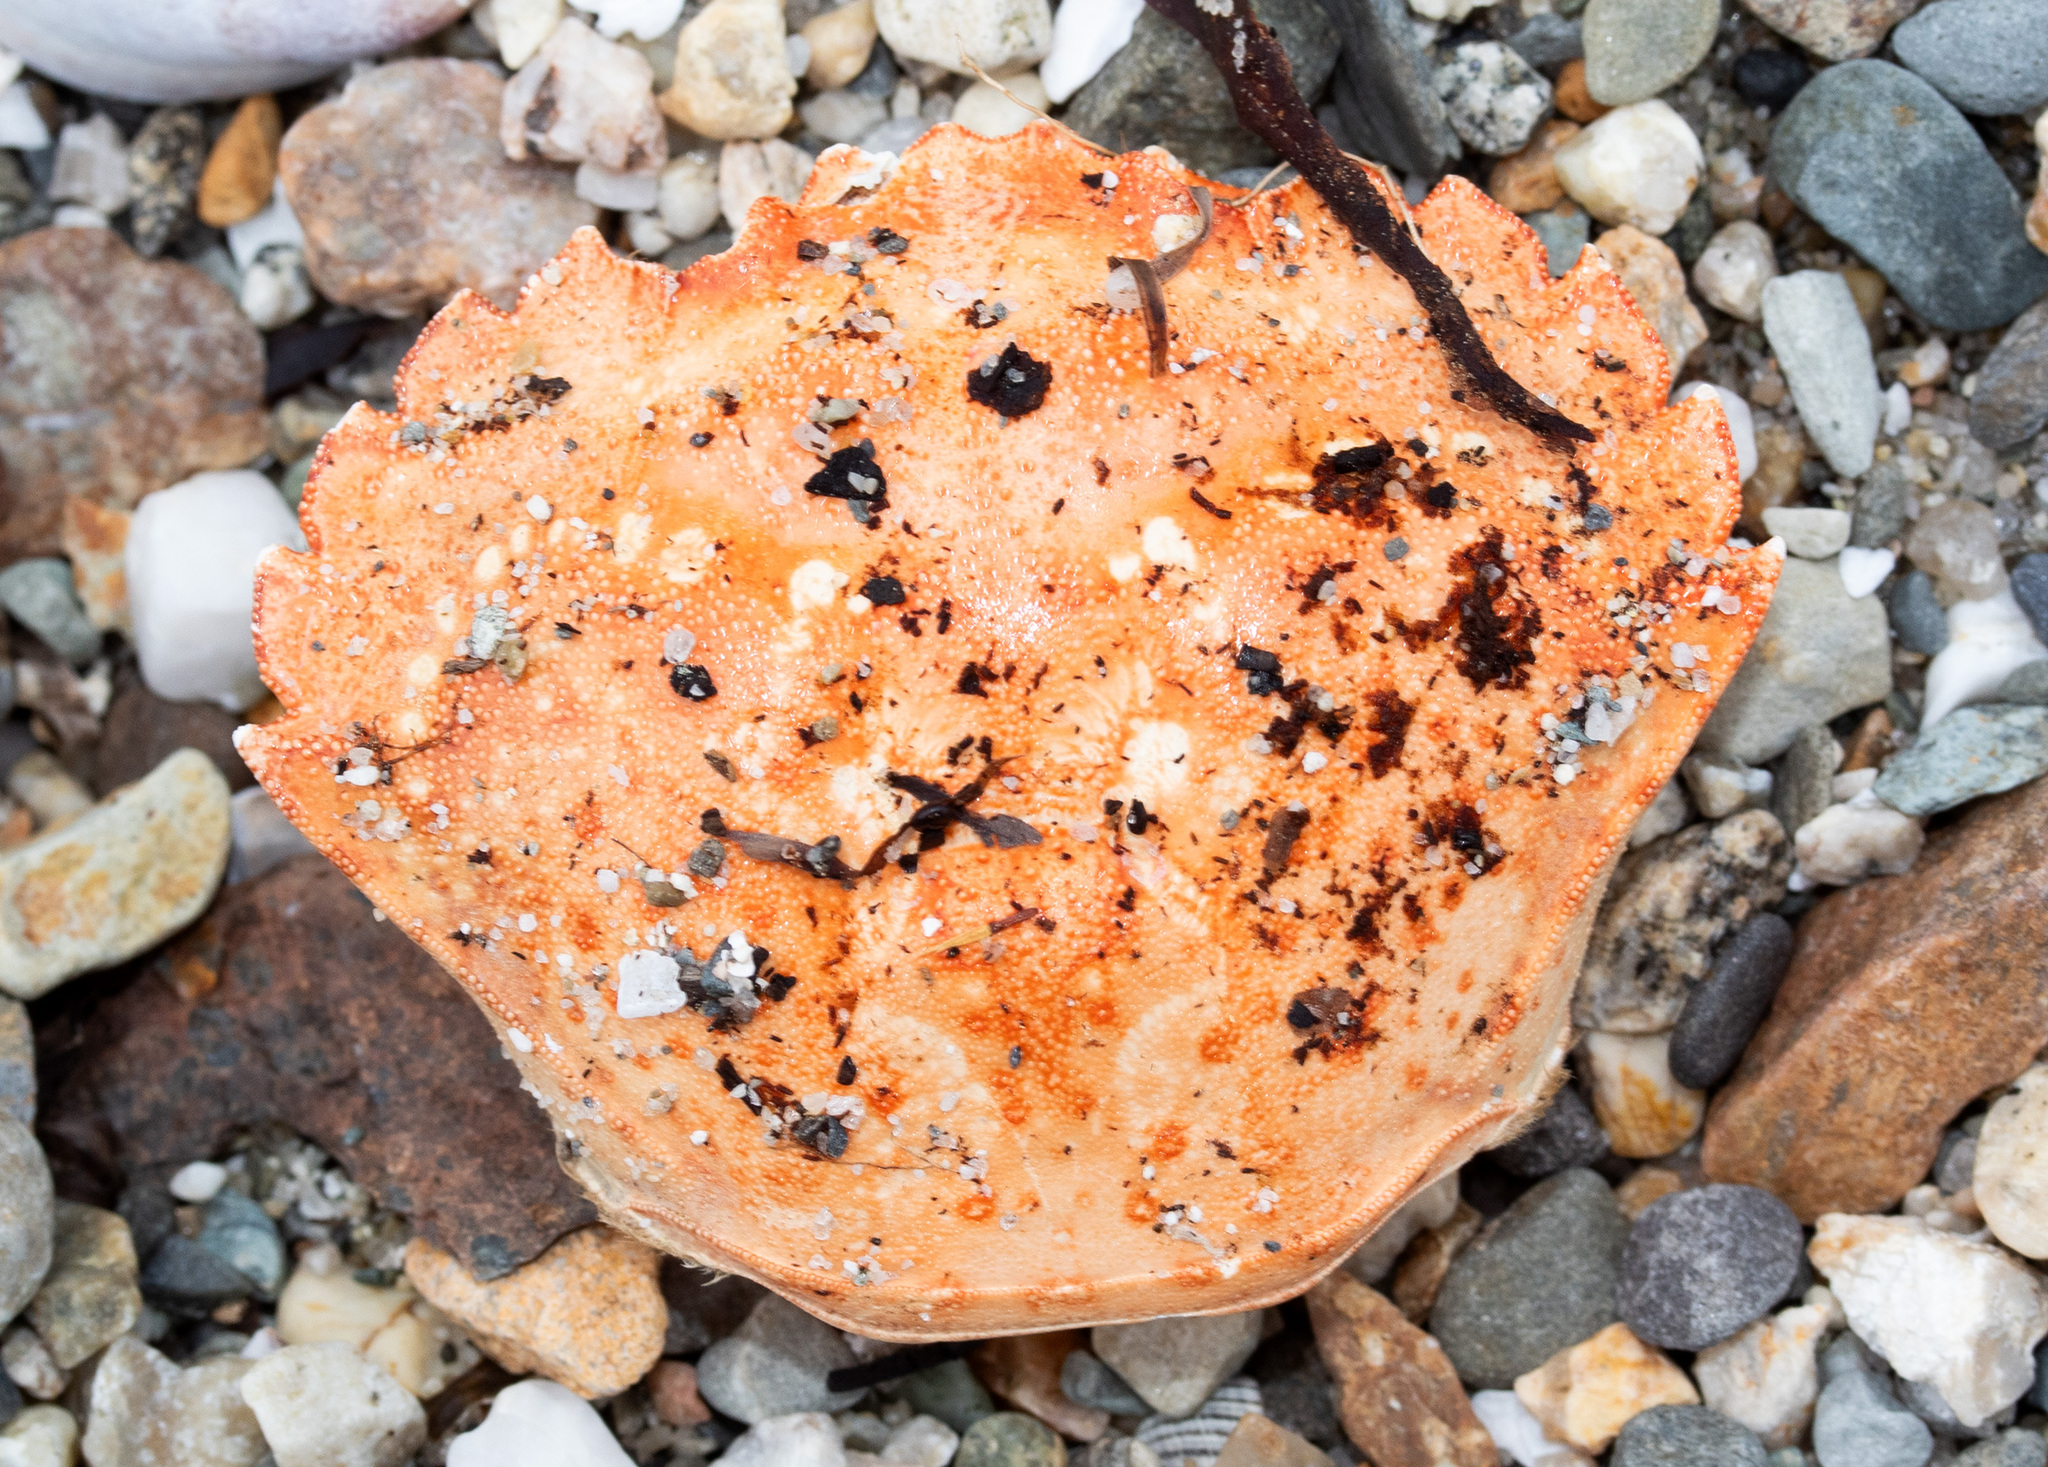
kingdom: Animalia
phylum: Arthropoda
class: Malacostraca
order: Decapoda
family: Carcinidae
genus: Carcinus
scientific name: Carcinus maenas
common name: European green crab
